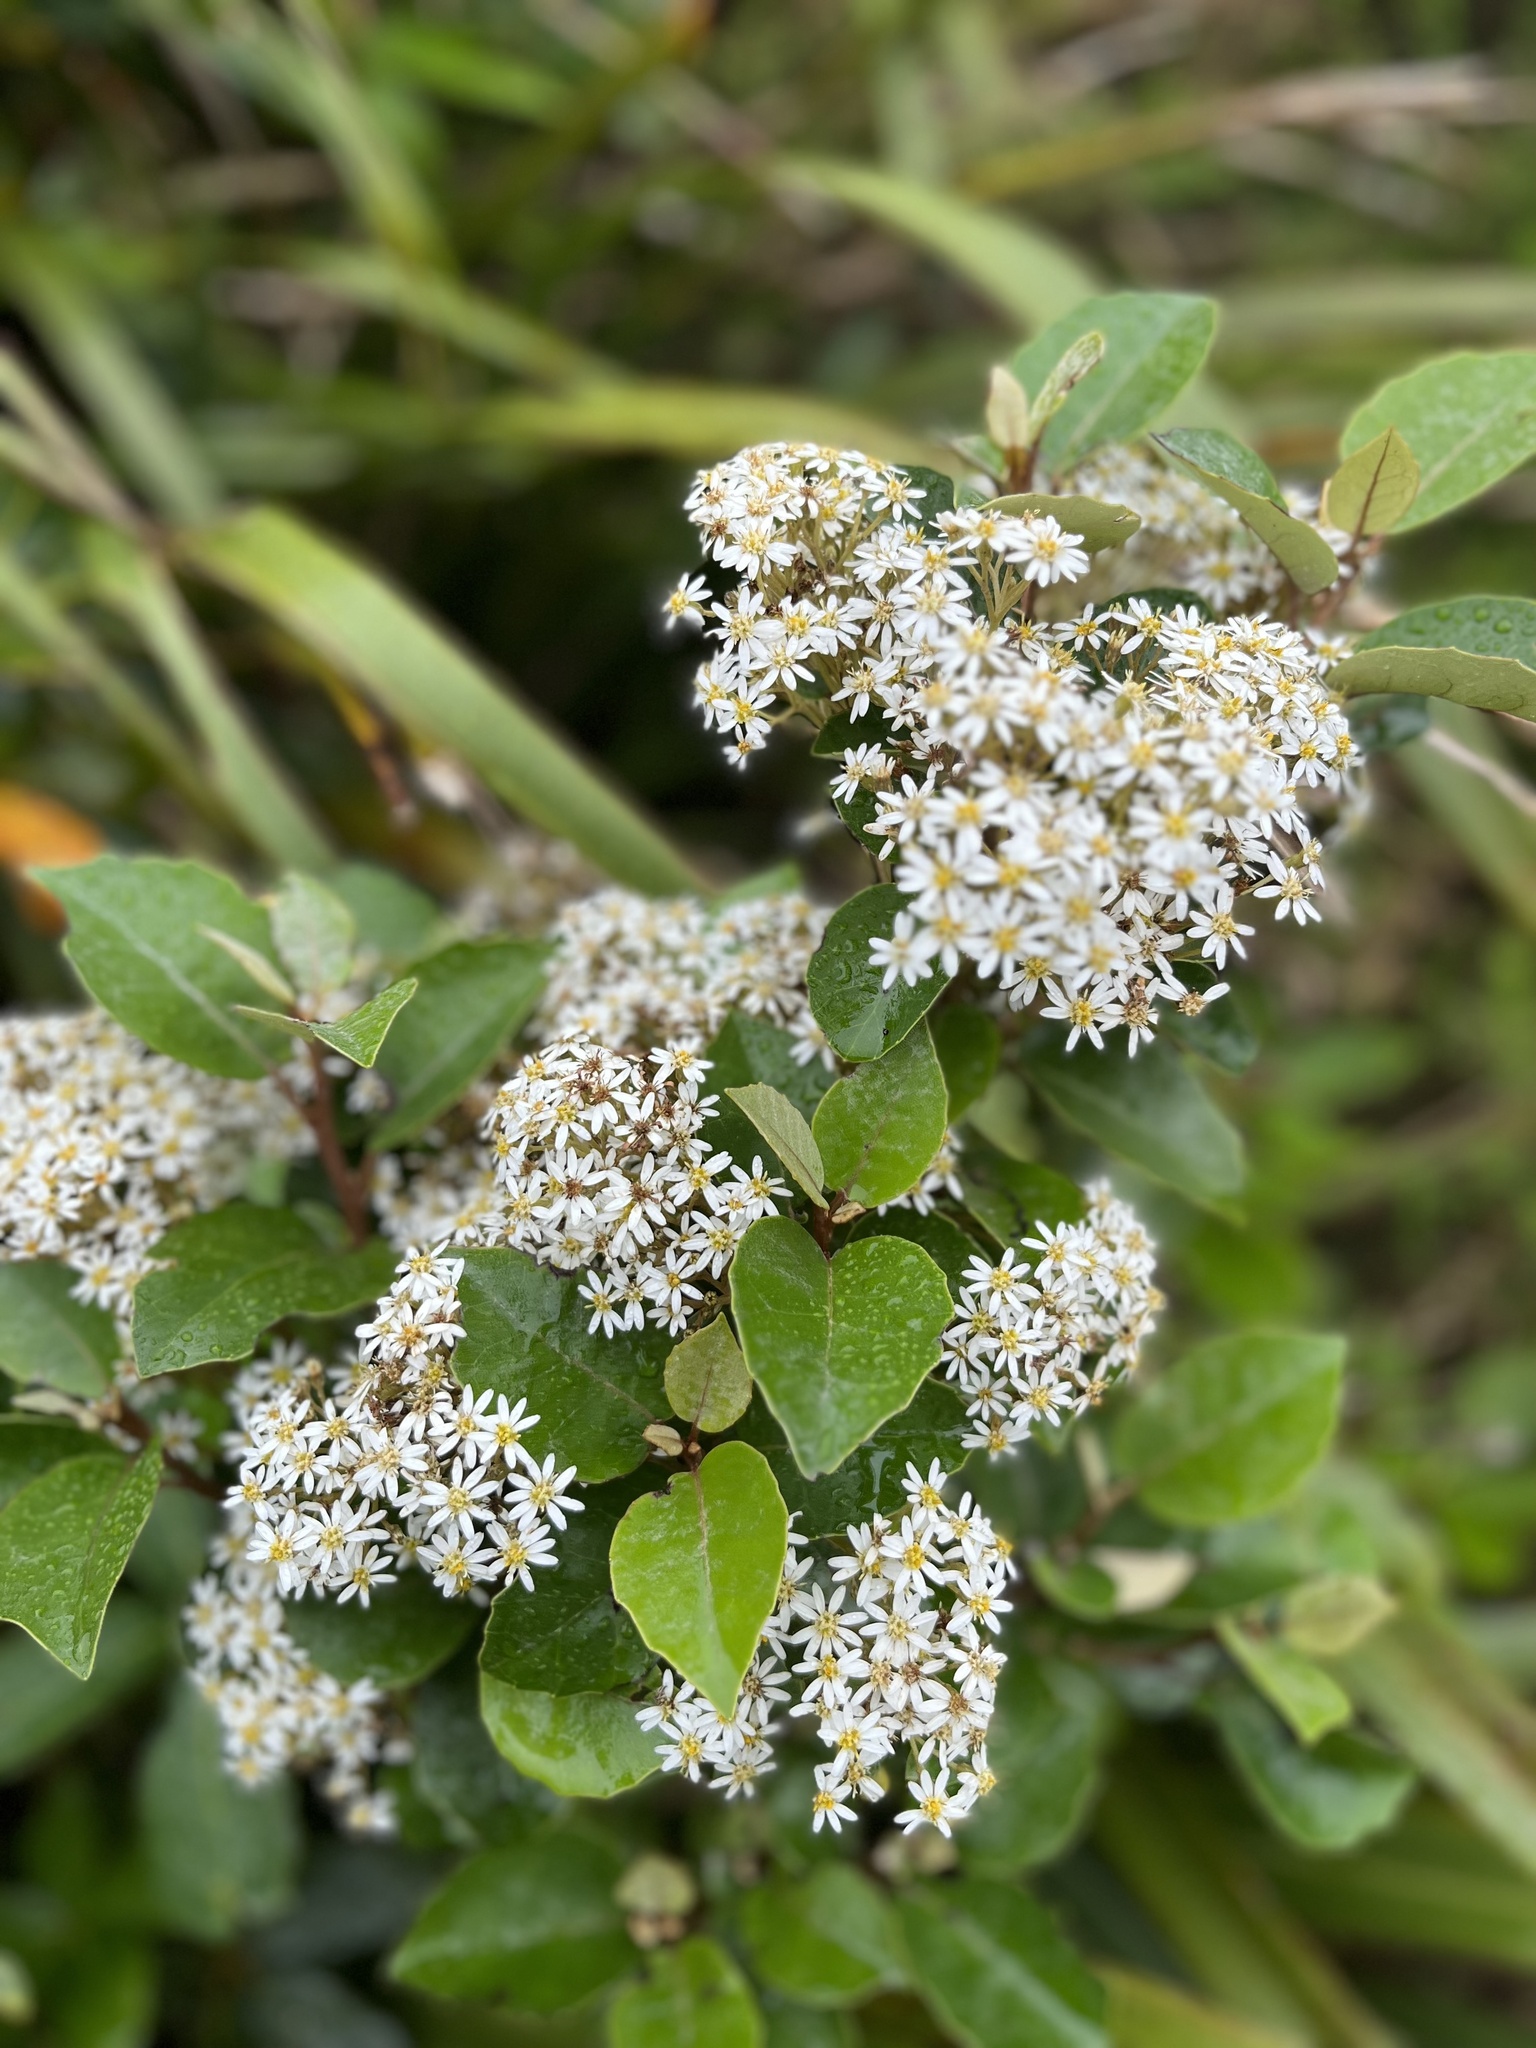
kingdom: Plantae
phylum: Tracheophyta
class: Magnoliopsida
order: Asterales
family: Asteraceae
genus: Olearia
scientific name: Olearia arborescens
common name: Glossy tree daisy
